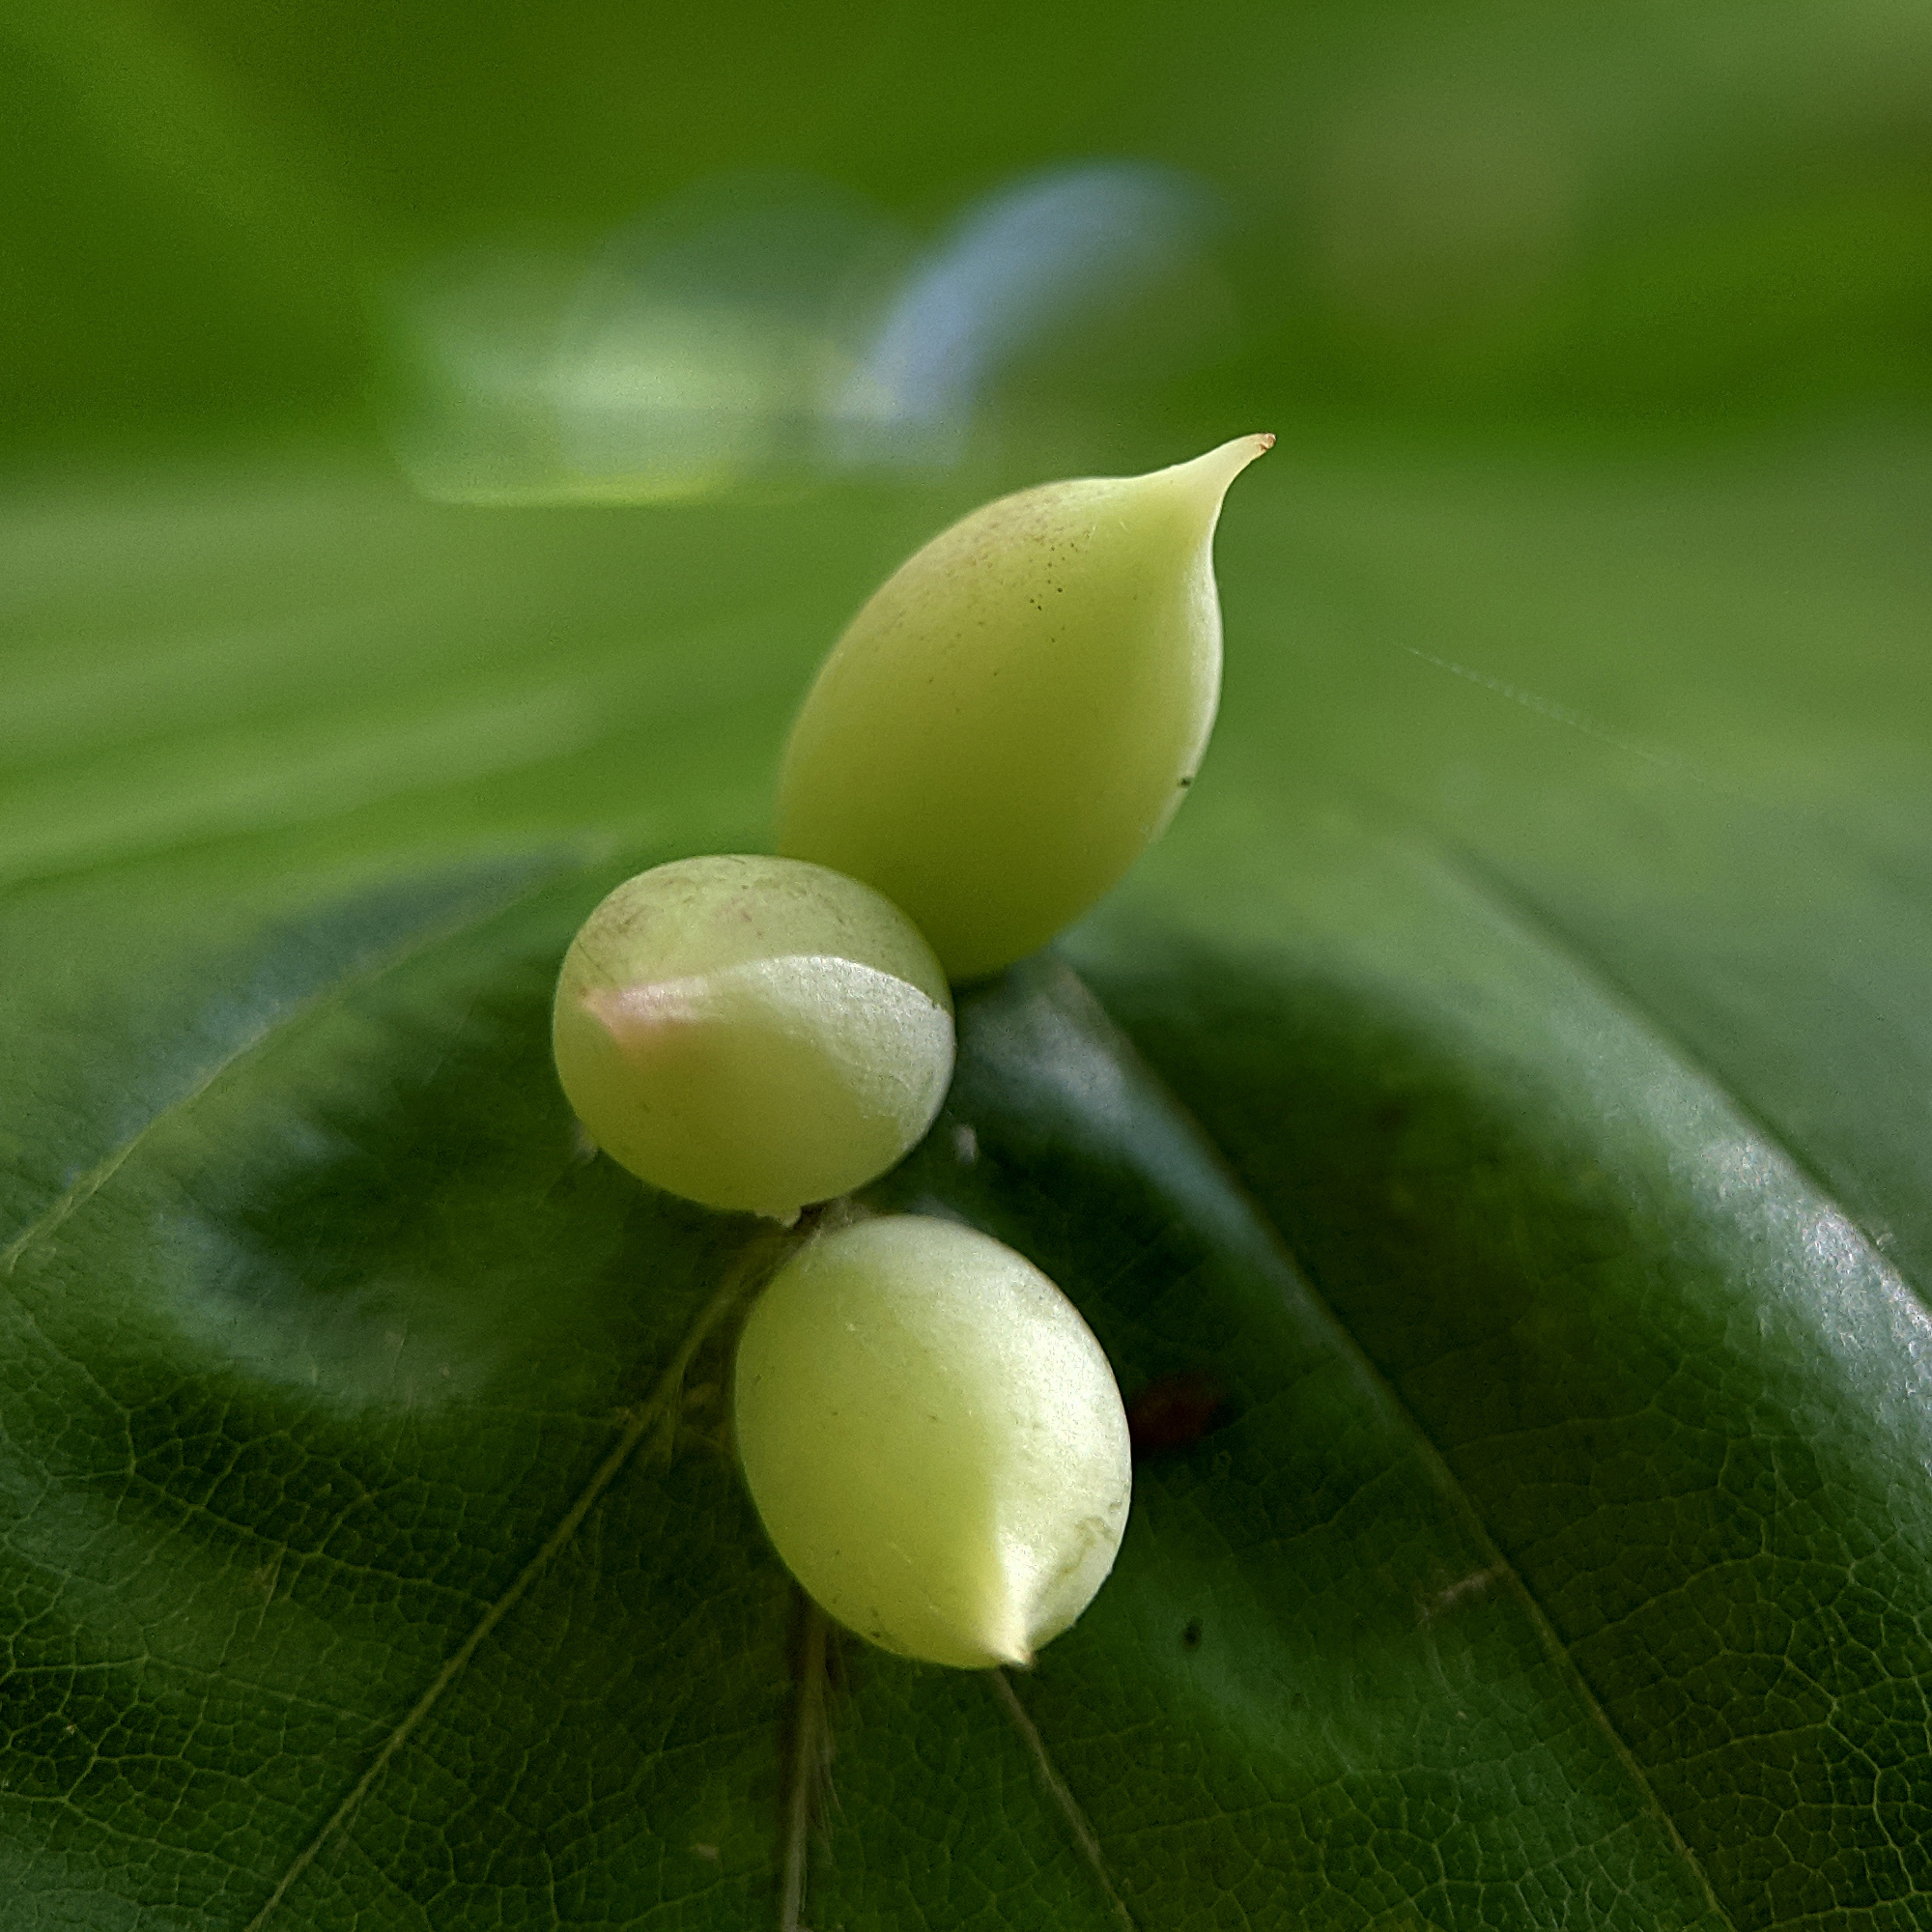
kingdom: Animalia
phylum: Arthropoda
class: Insecta
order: Diptera
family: Cecidomyiidae
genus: Mikiola
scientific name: Mikiola fagi
